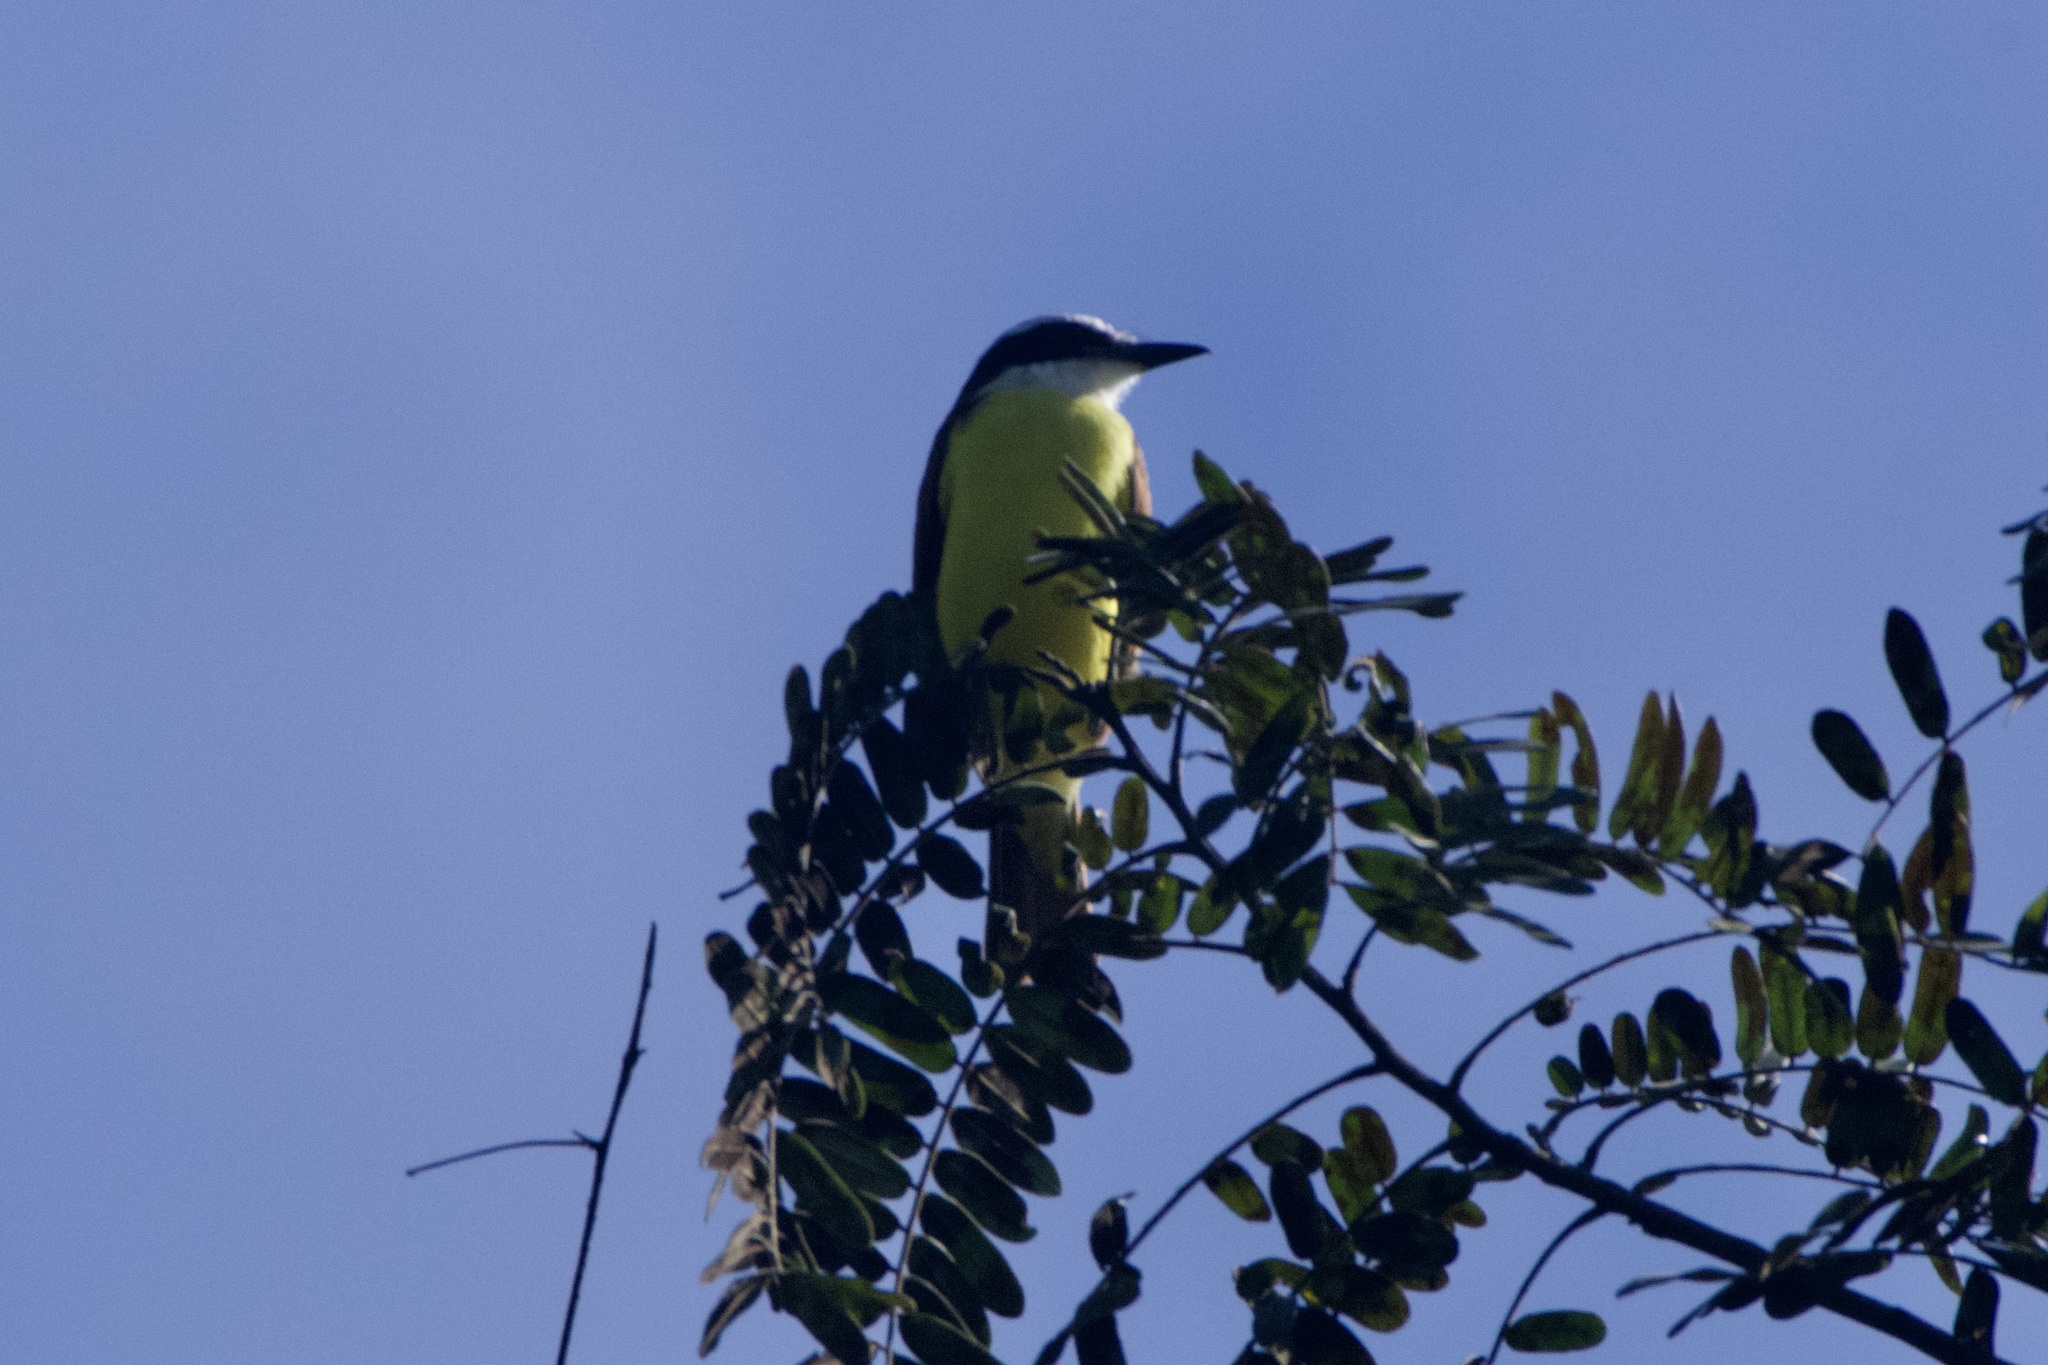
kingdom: Animalia
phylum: Chordata
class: Aves
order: Passeriformes
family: Tyrannidae
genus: Pitangus
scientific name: Pitangus sulphuratus
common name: Great kiskadee
